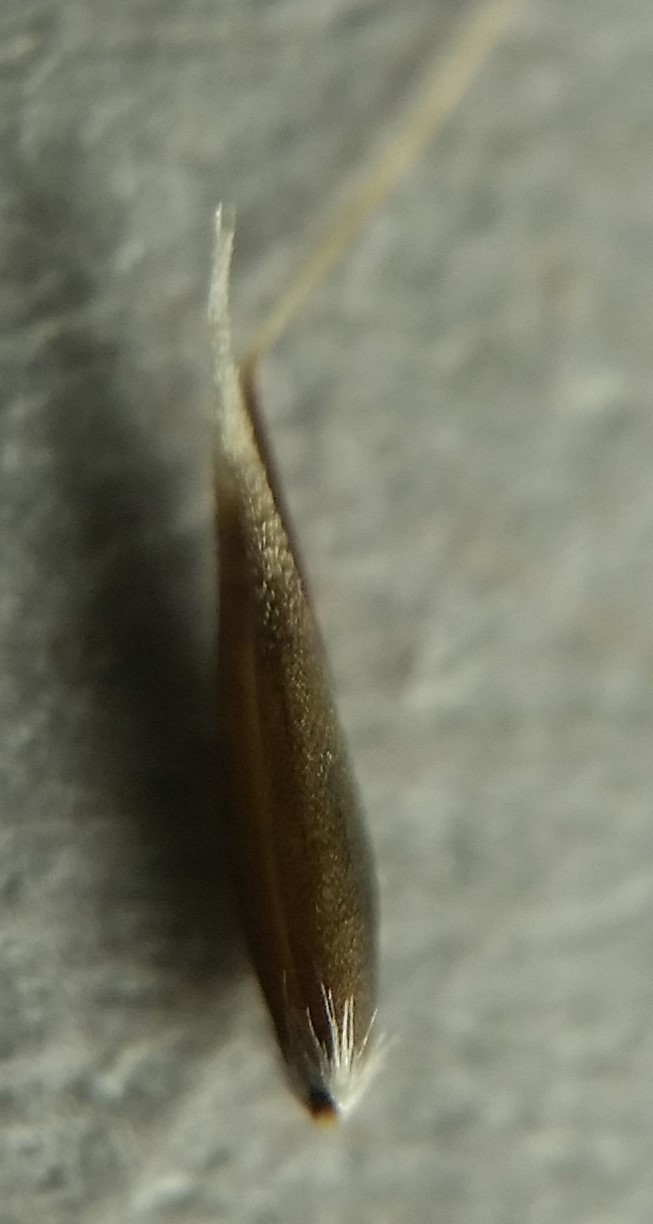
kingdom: Plantae
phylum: Tracheophyta
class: Liliopsida
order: Poales
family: Poaceae
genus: Aira
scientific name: Aira praecox
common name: Early hair-grass
